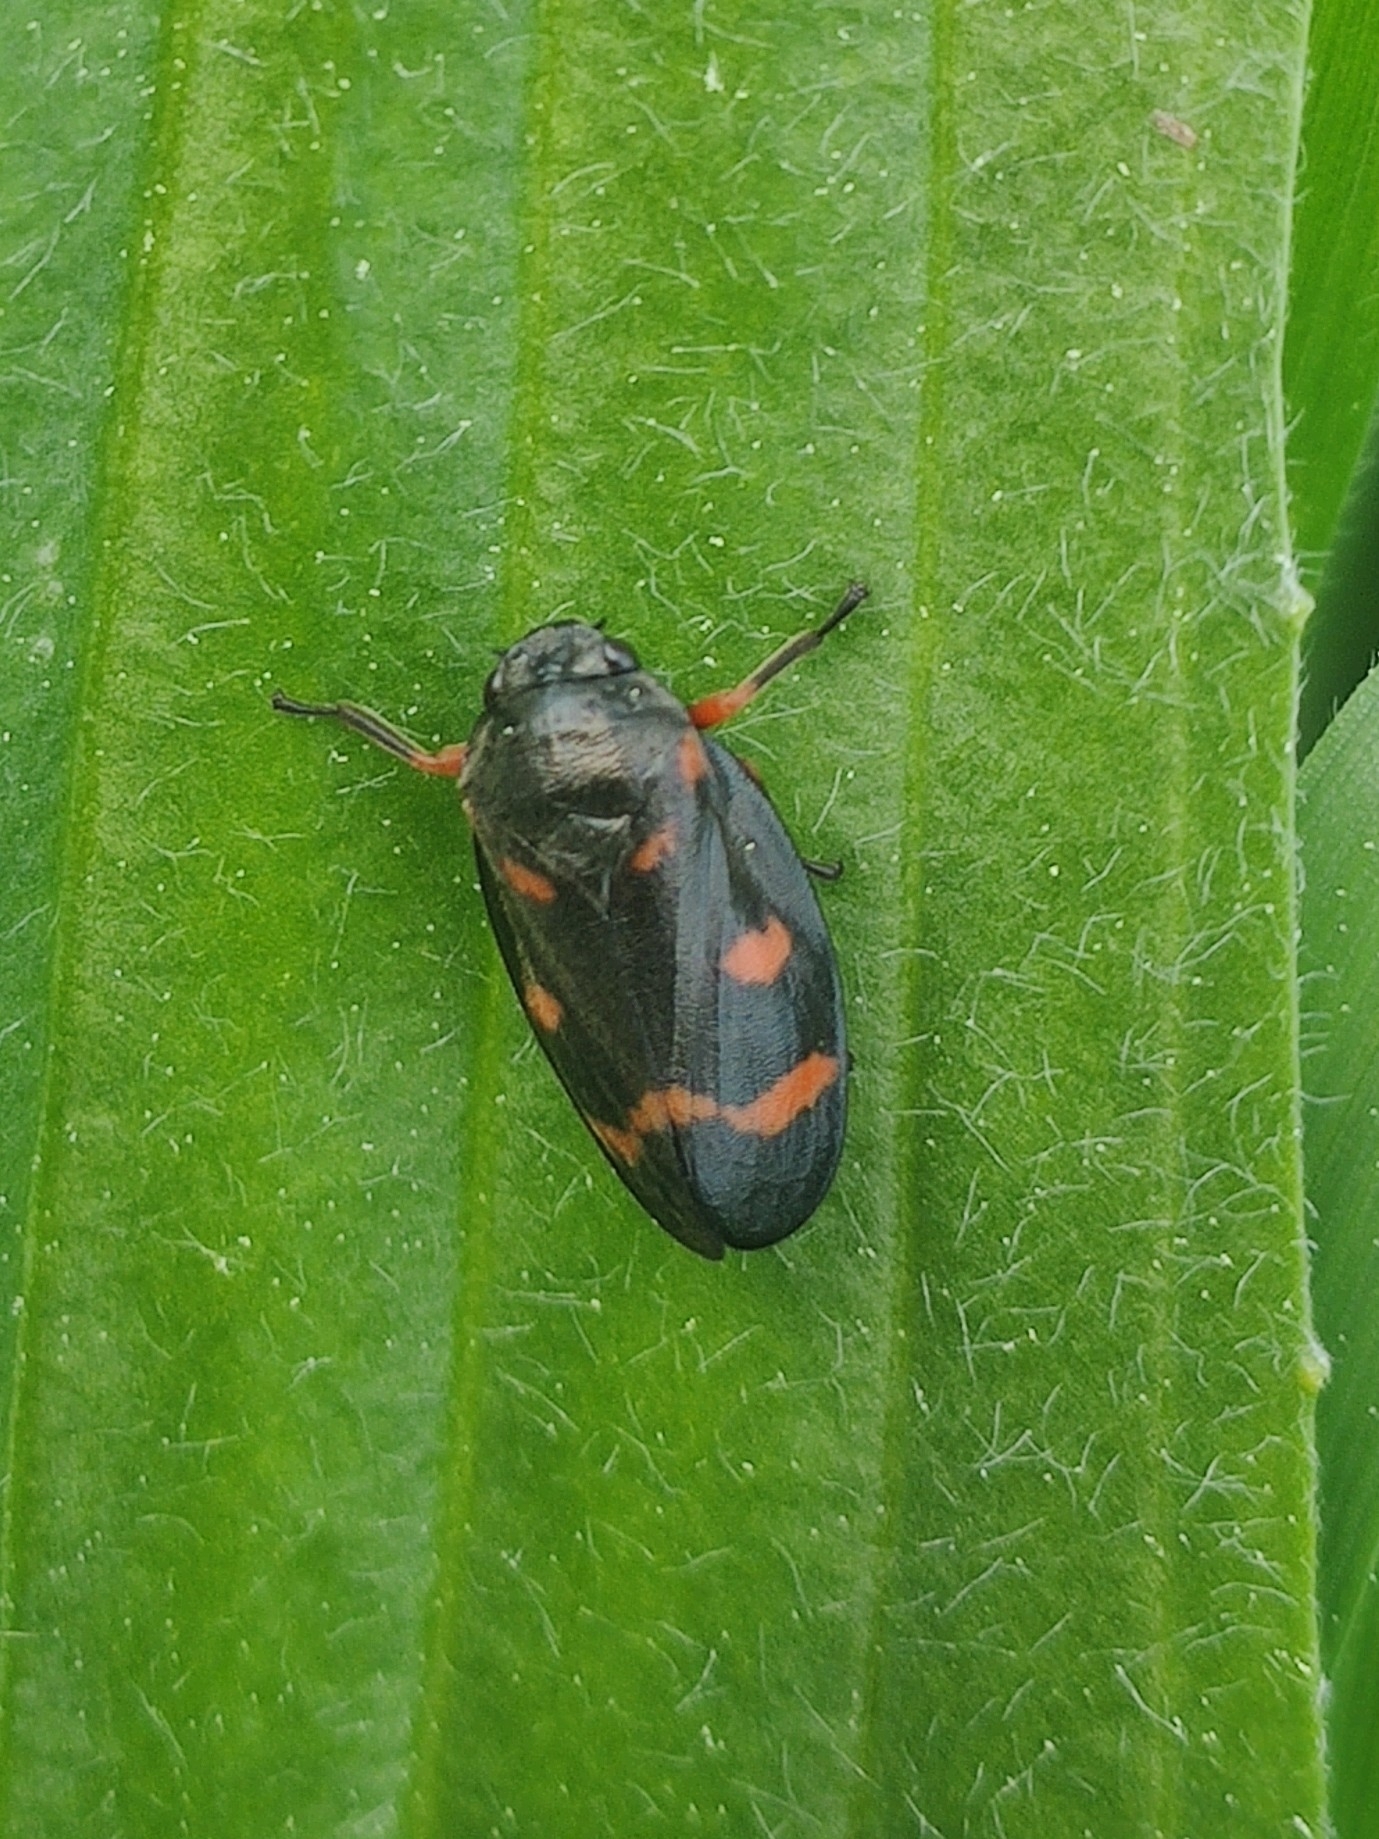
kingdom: Animalia
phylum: Arthropoda
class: Insecta
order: Hemiptera
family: Cercopidae
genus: Cercopis
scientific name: Cercopis intermedia
